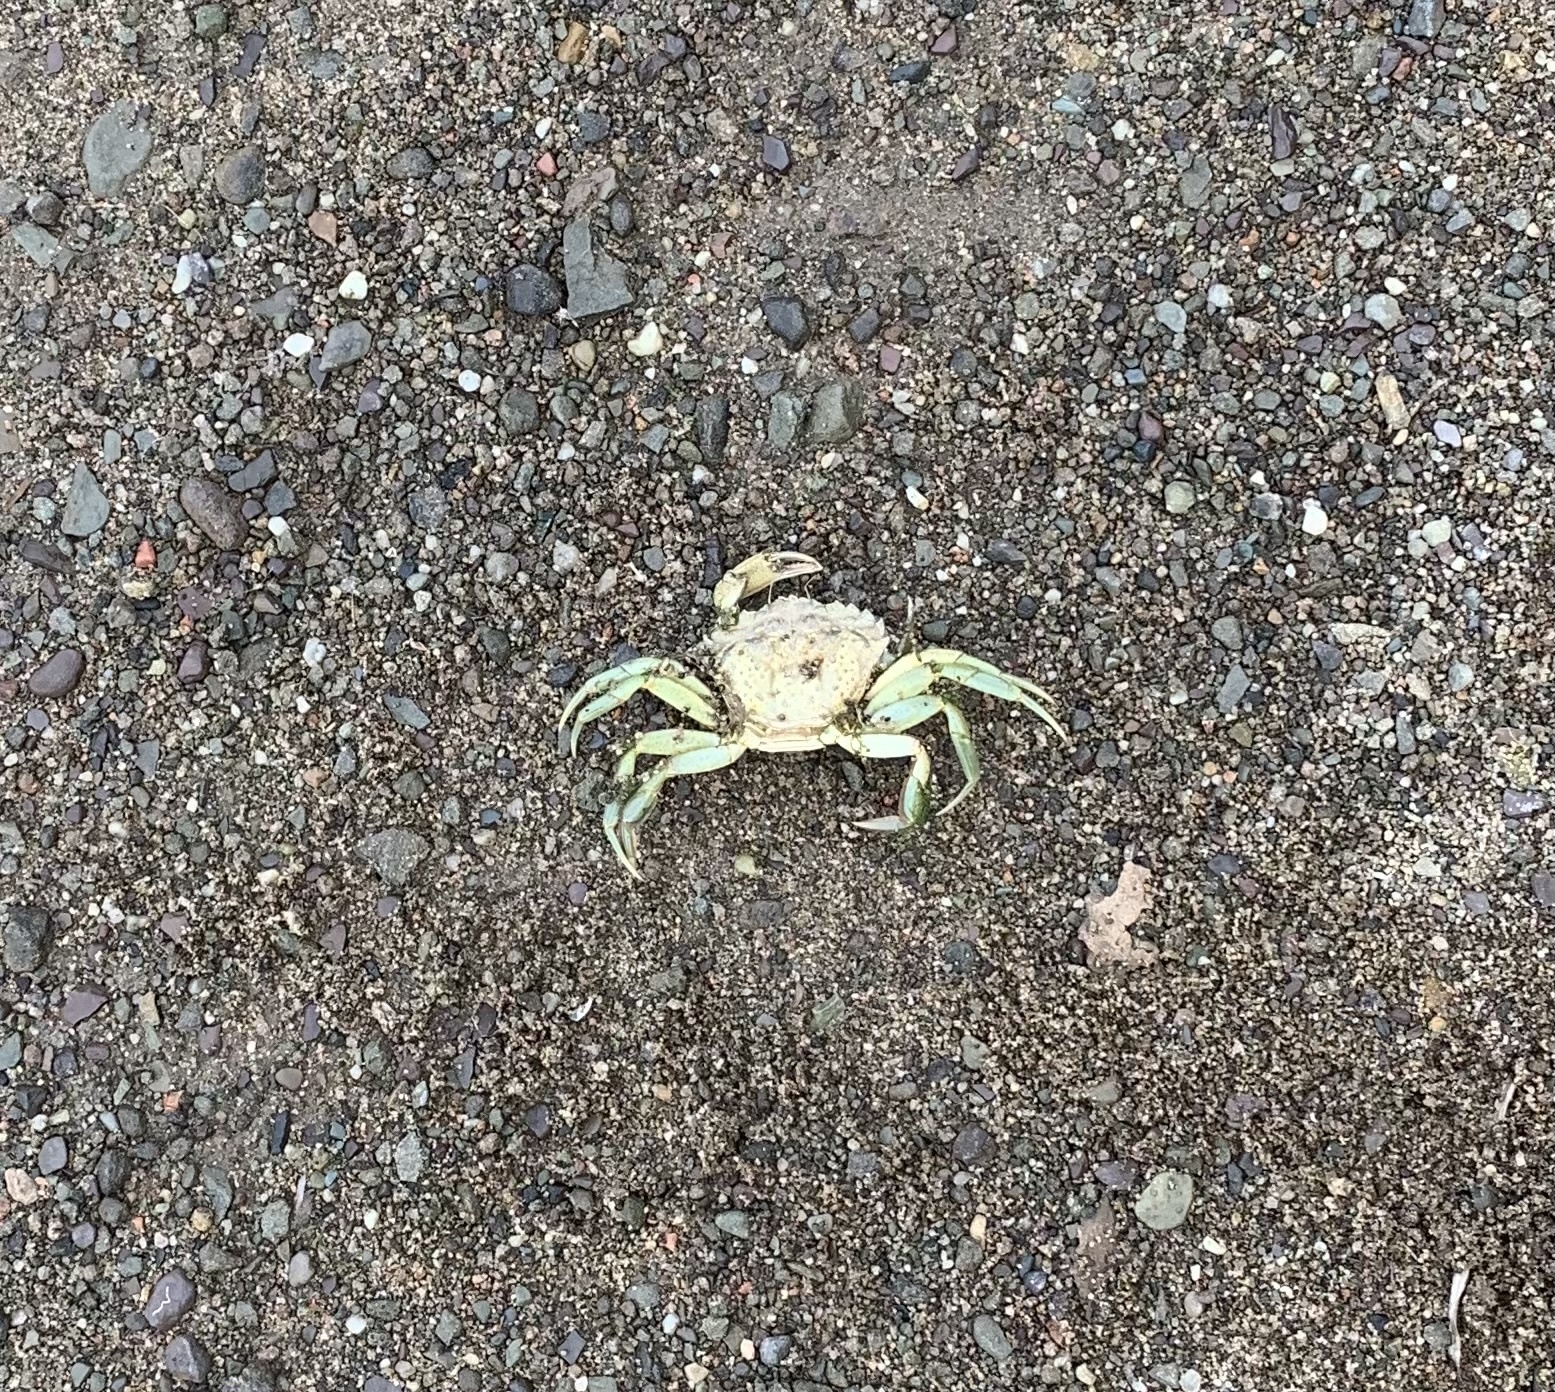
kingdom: Animalia
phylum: Arthropoda
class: Malacostraca
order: Decapoda
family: Carcinidae
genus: Carcinus
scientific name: Carcinus maenas
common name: European green crab
